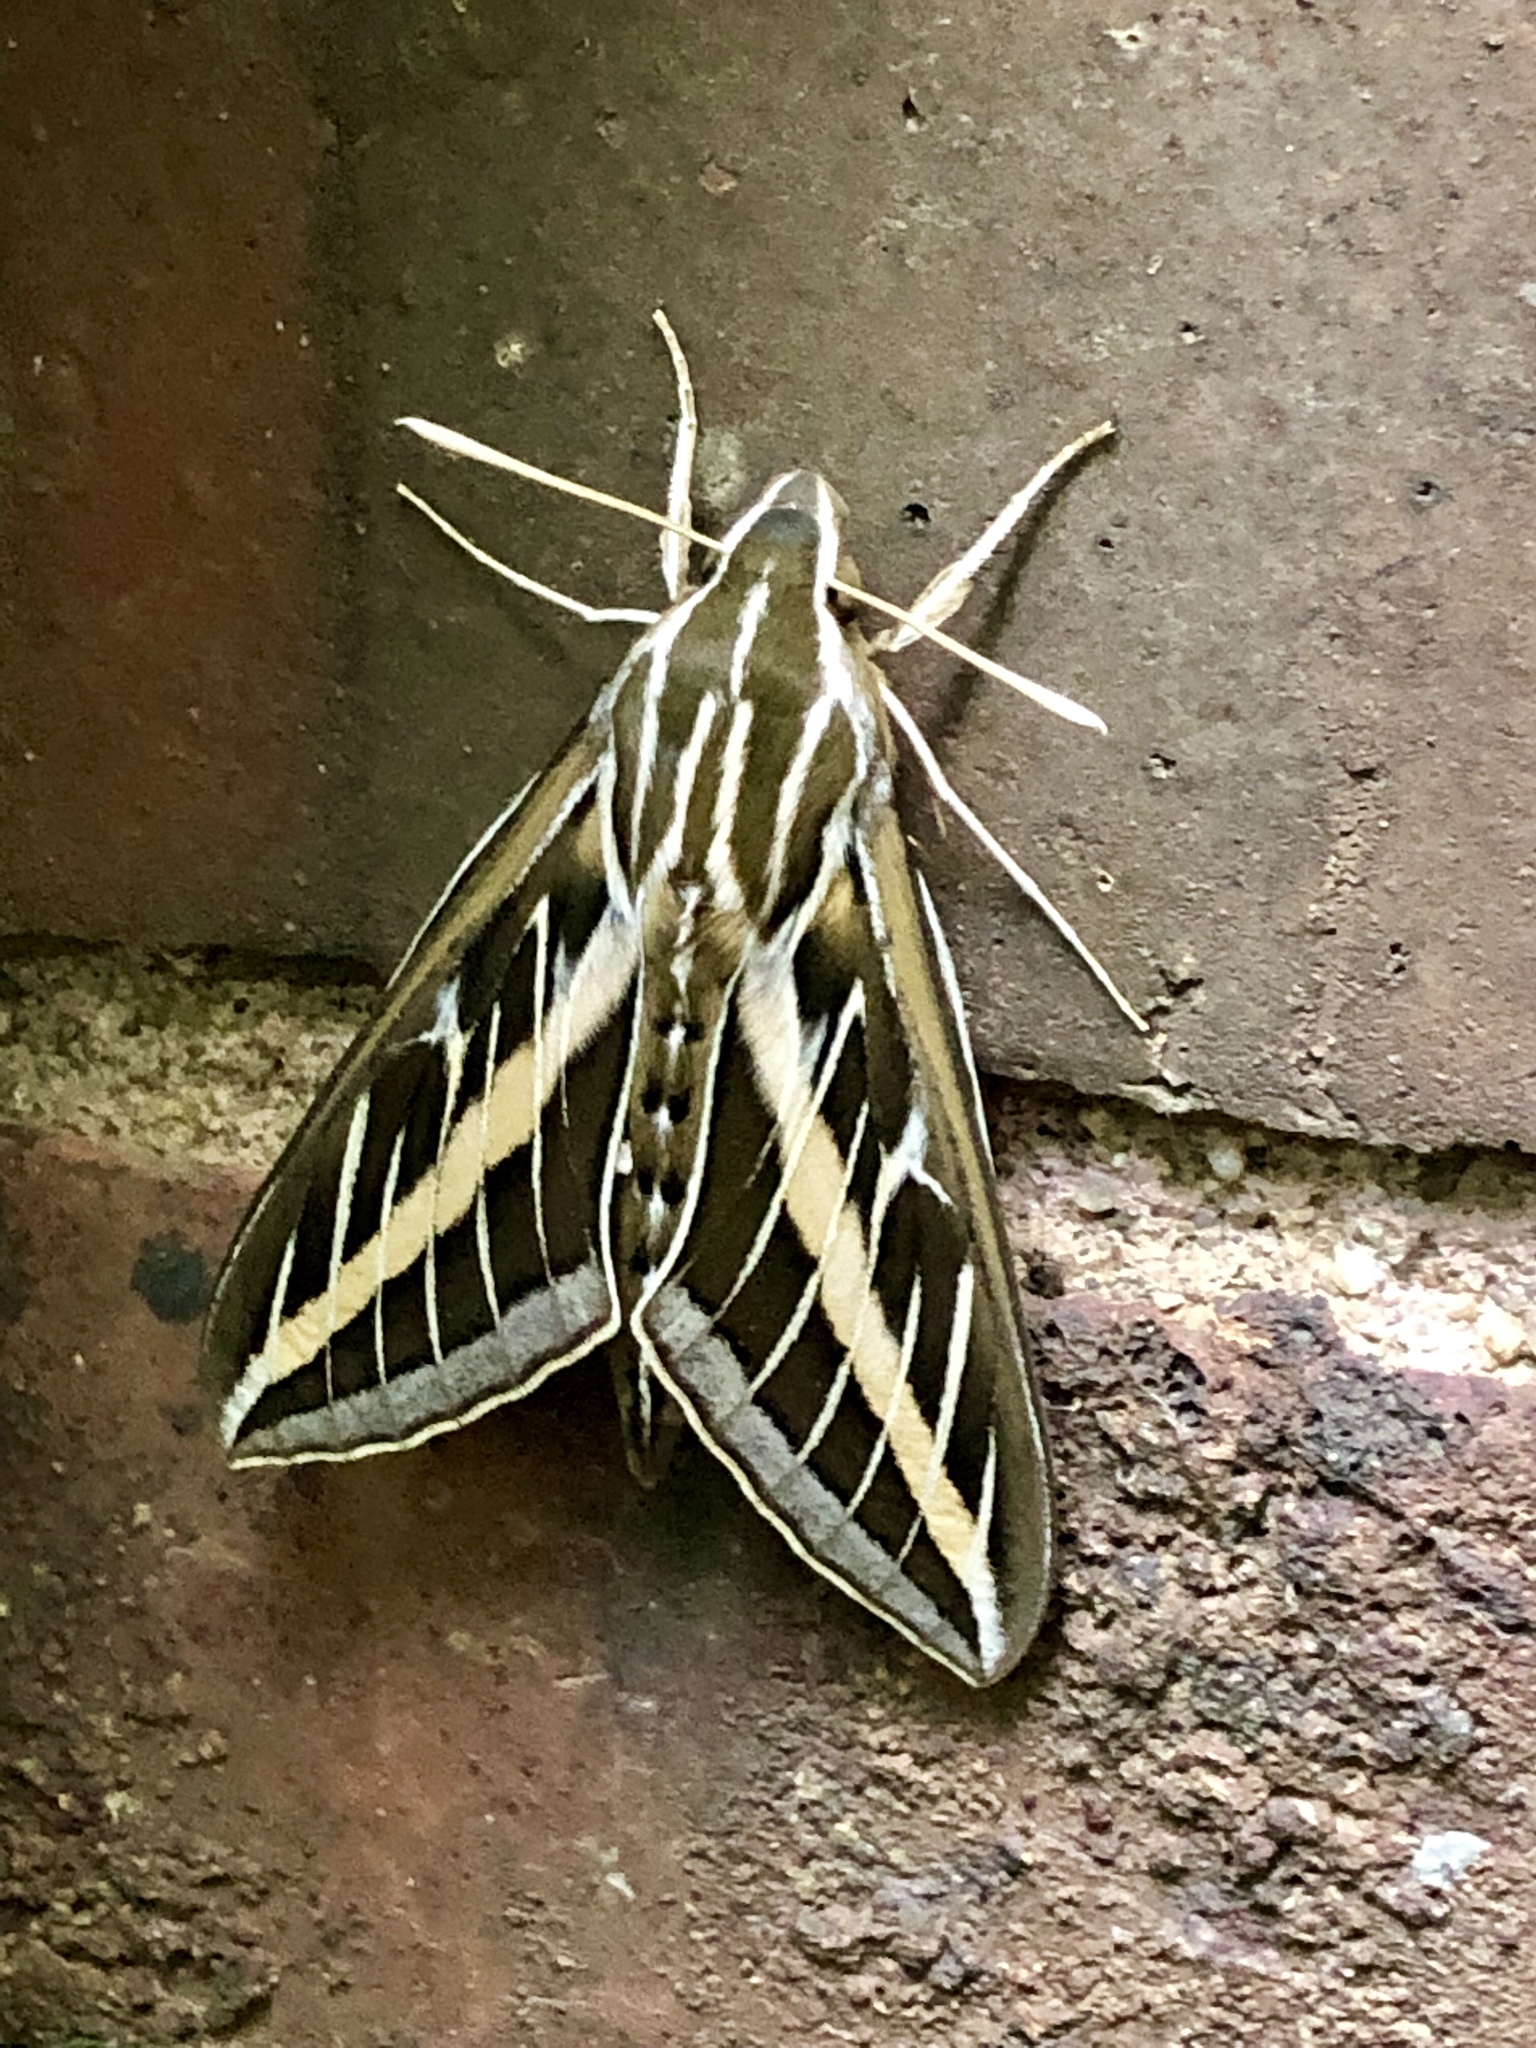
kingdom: Animalia
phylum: Arthropoda
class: Insecta
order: Lepidoptera
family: Sphingidae
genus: Hyles
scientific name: Hyles lineata
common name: White-lined sphinx
